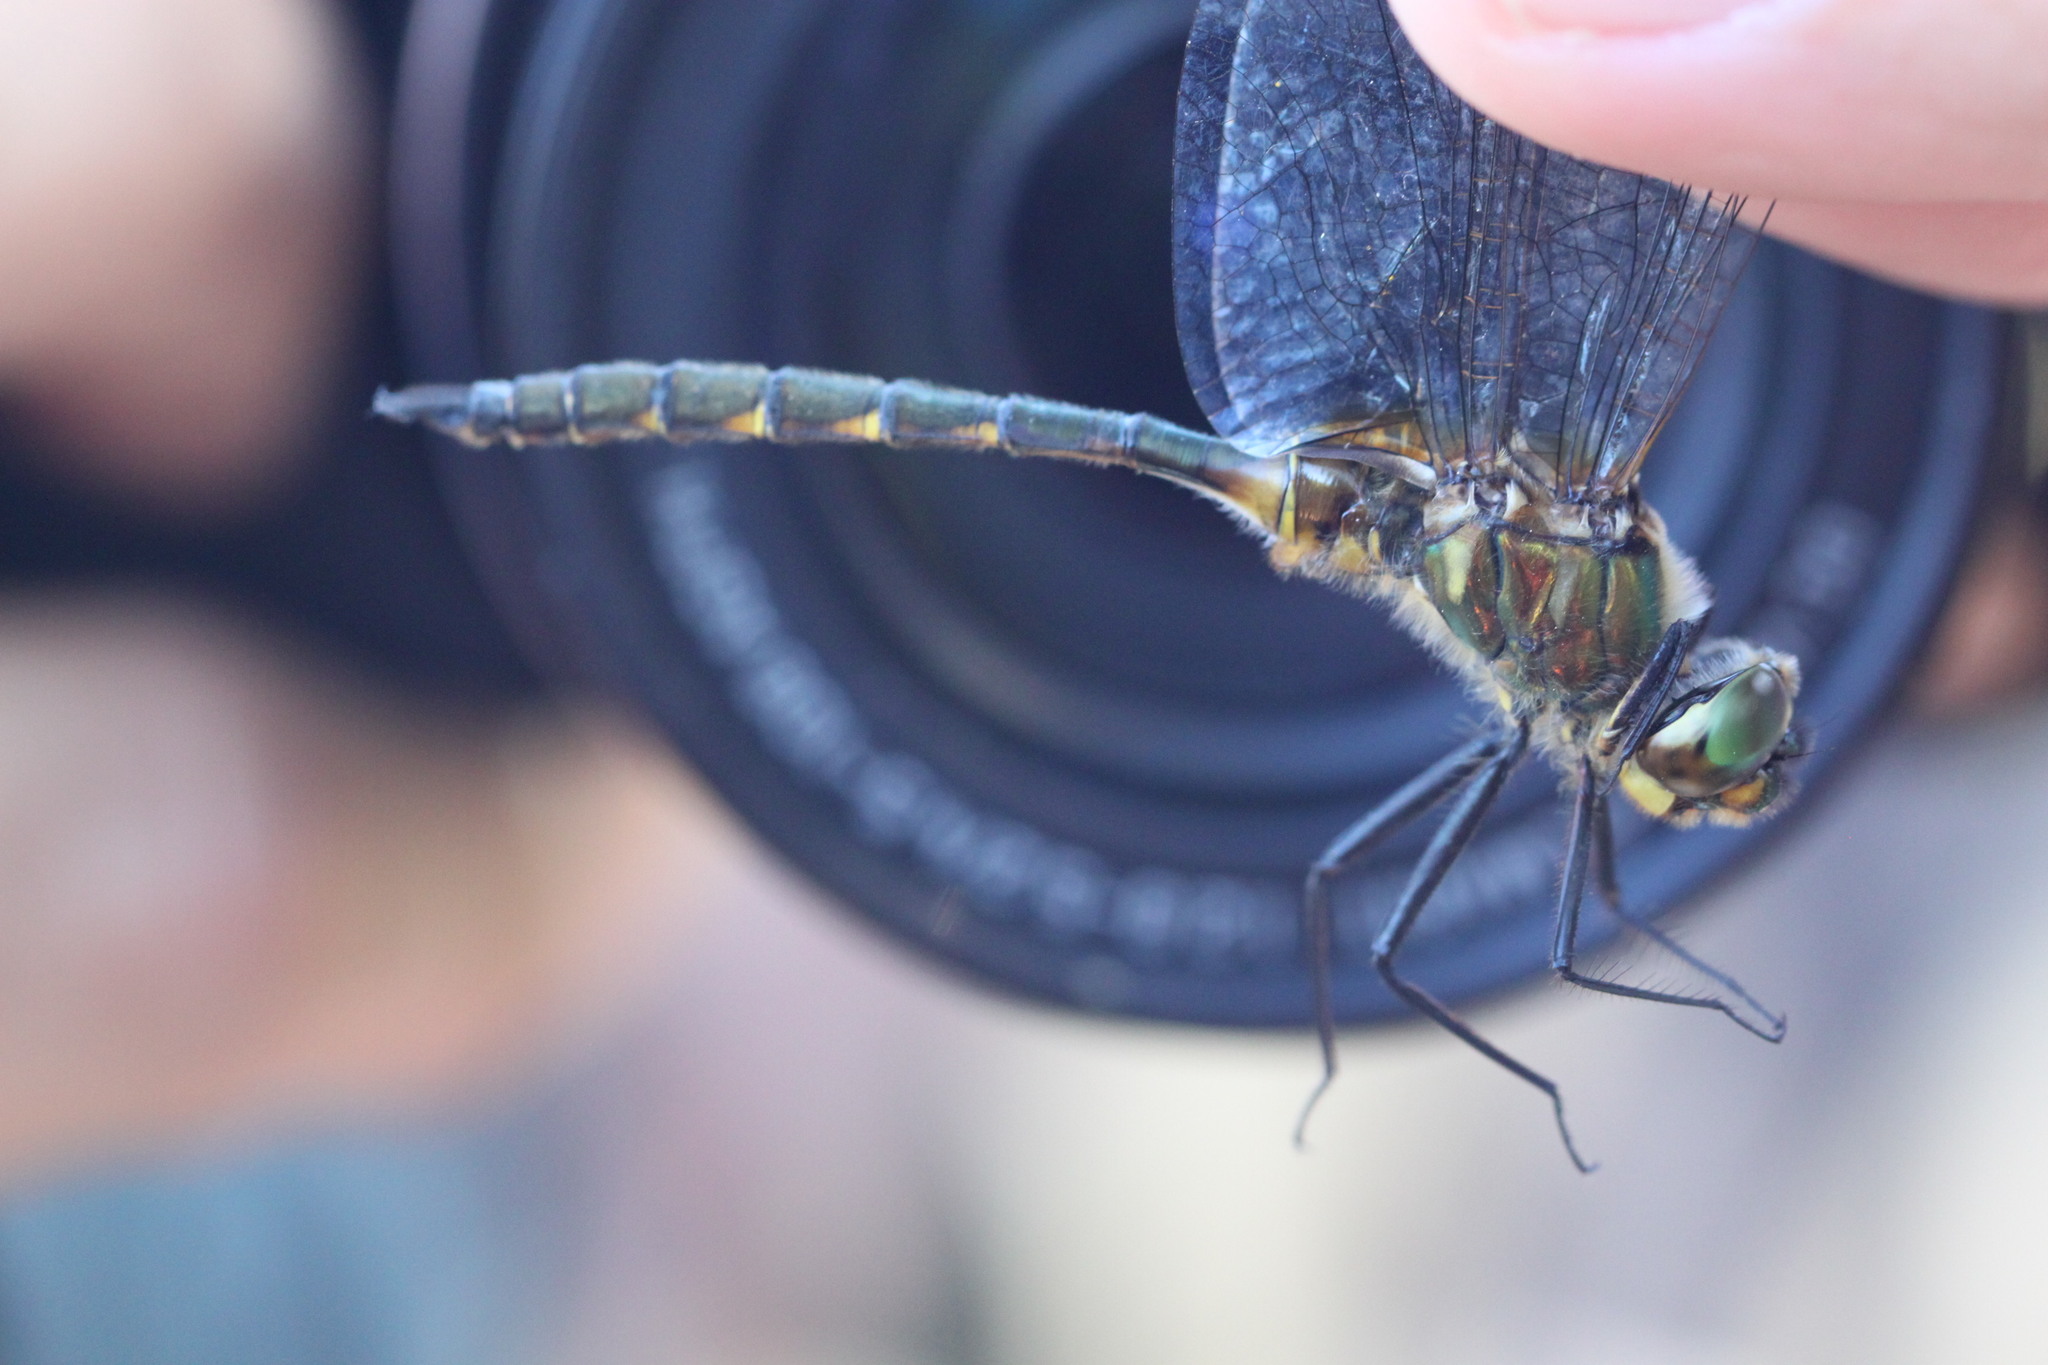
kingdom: Animalia
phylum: Arthropoda
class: Insecta
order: Odonata
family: Corduliidae
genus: Somatochlora
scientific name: Somatochlora flavomaculata
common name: Yellow-spotted emerald
